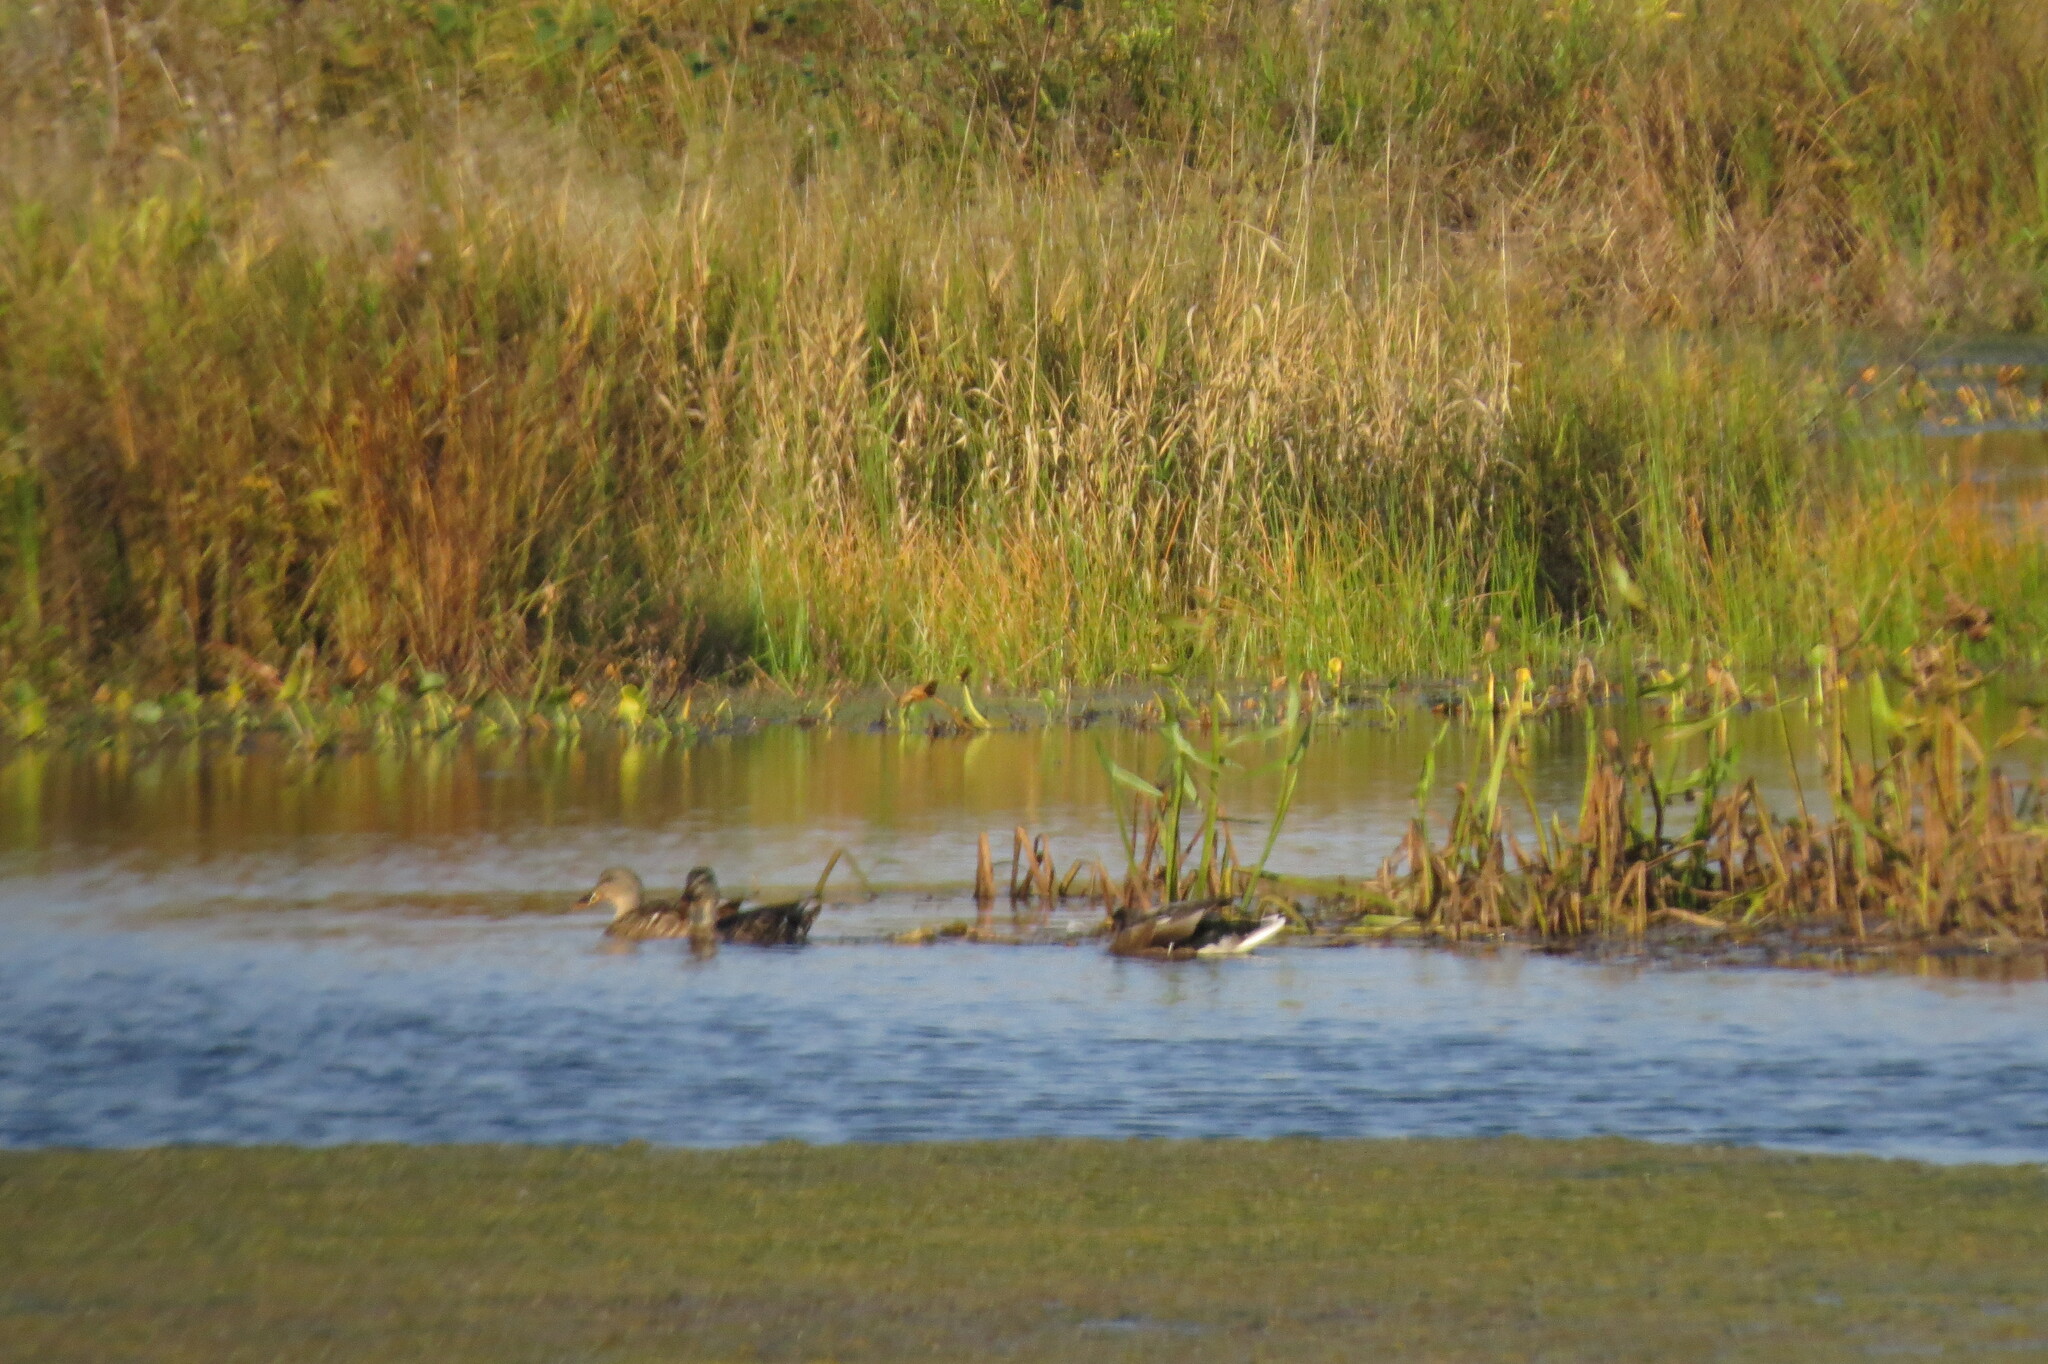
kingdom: Animalia
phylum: Chordata
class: Aves
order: Anseriformes
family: Anatidae
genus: Anas
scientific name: Anas platyrhynchos
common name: Mallard
